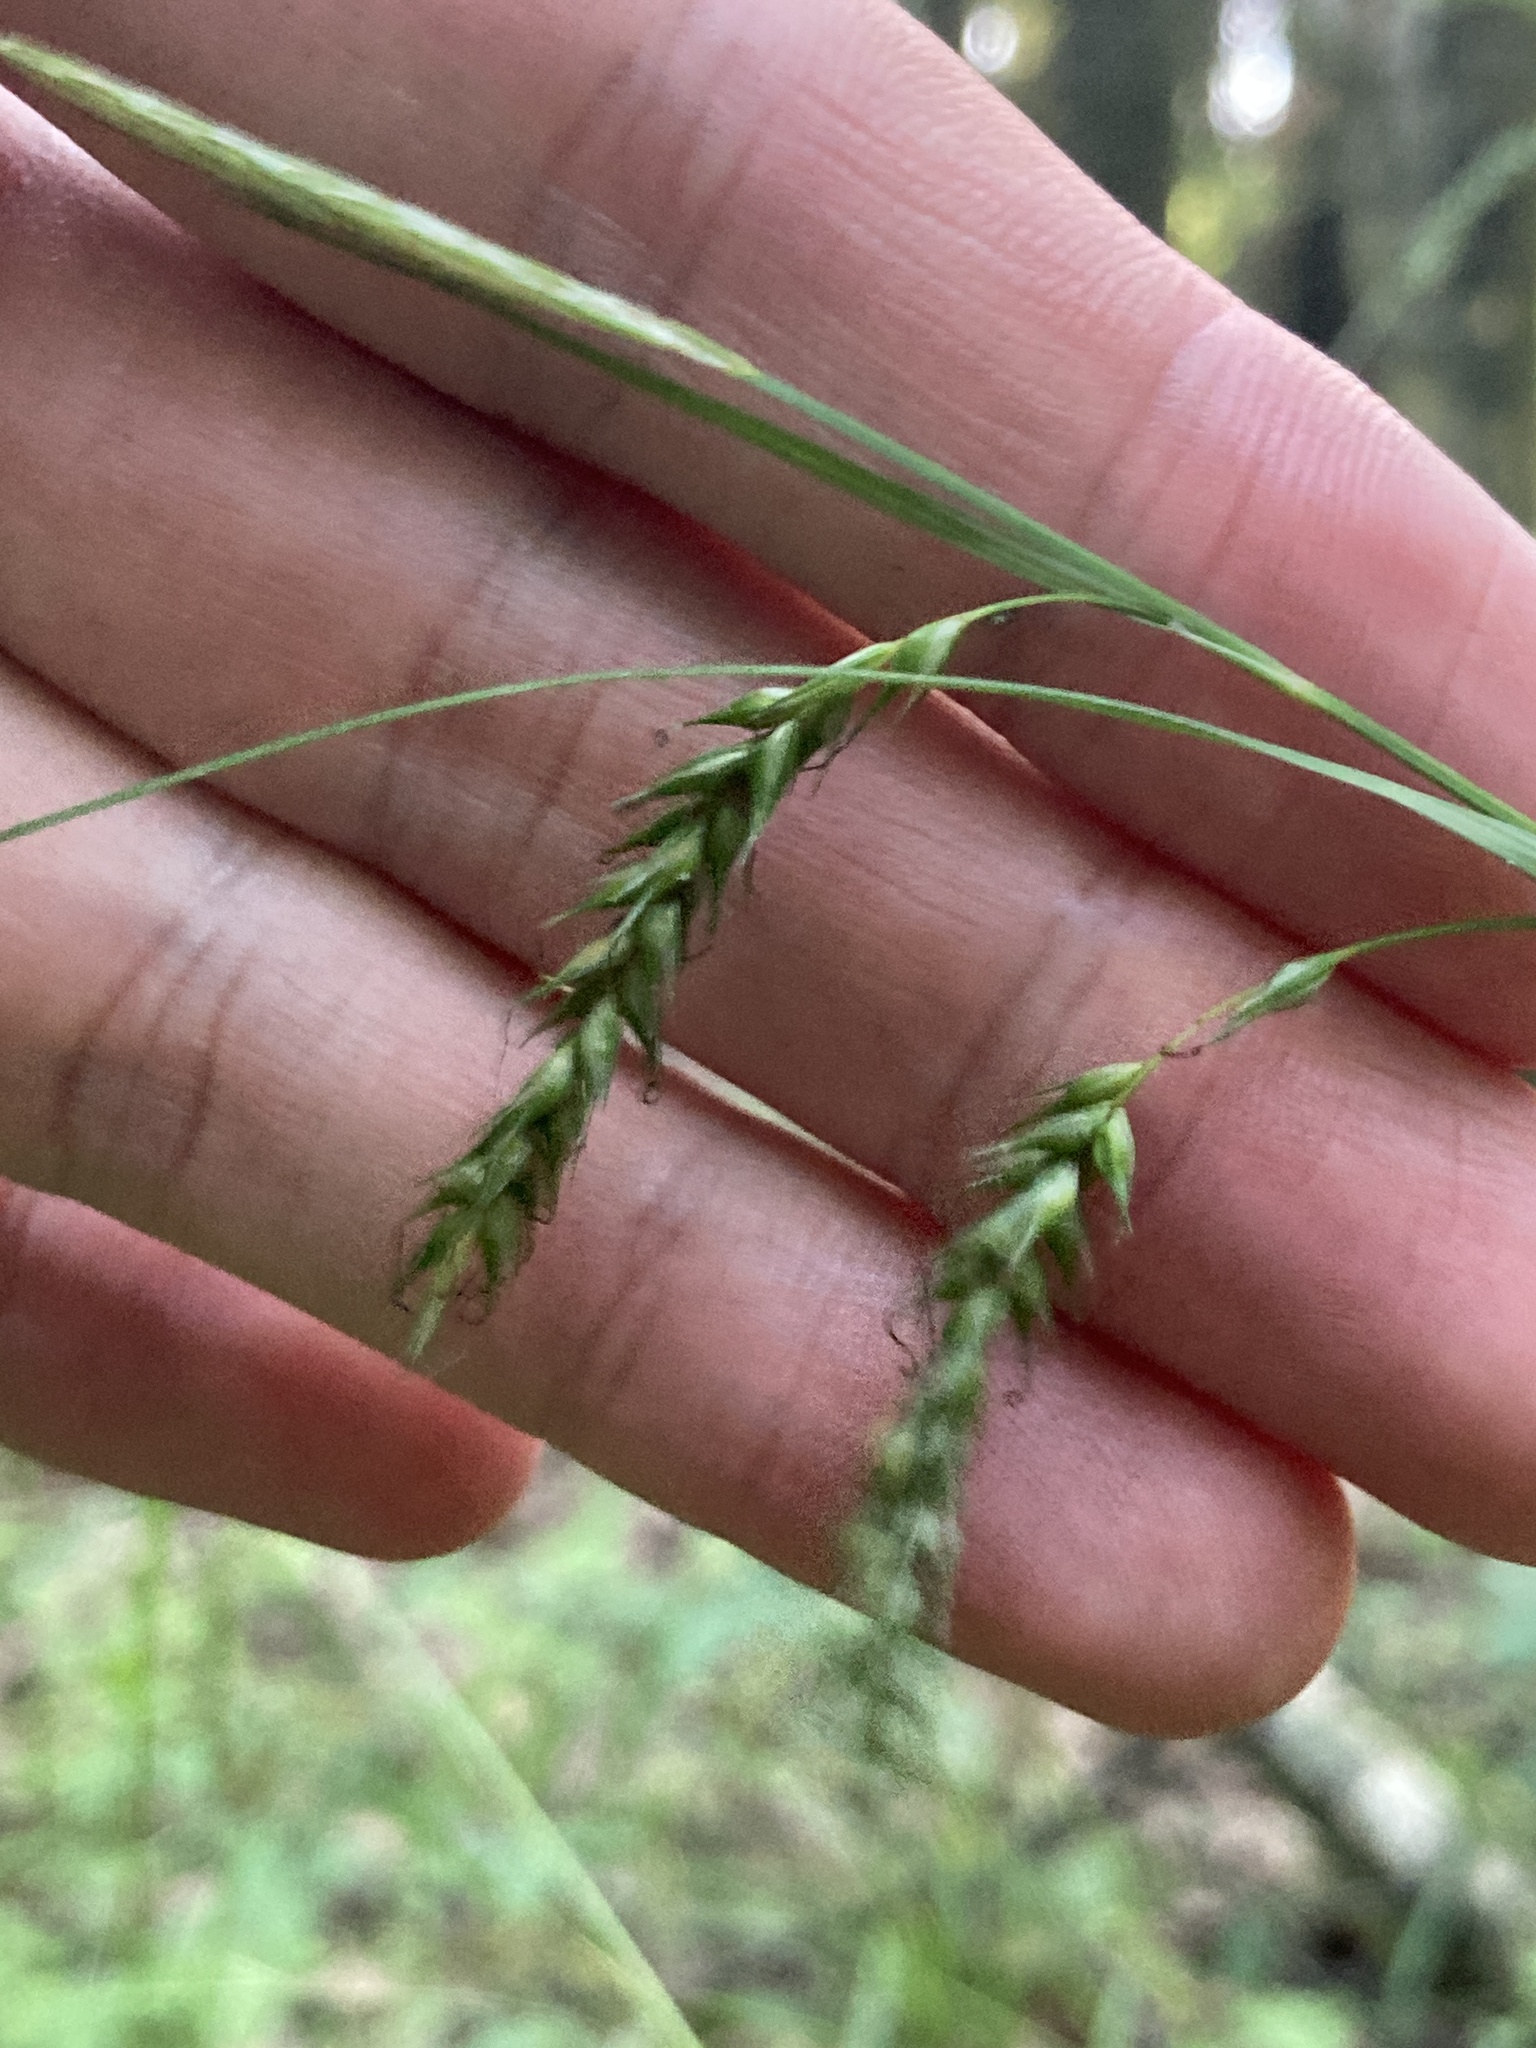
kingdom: Plantae
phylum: Tracheophyta
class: Liliopsida
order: Poales
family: Cyperaceae
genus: Carex
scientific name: Carex sylvatica
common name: Wood-sedge
